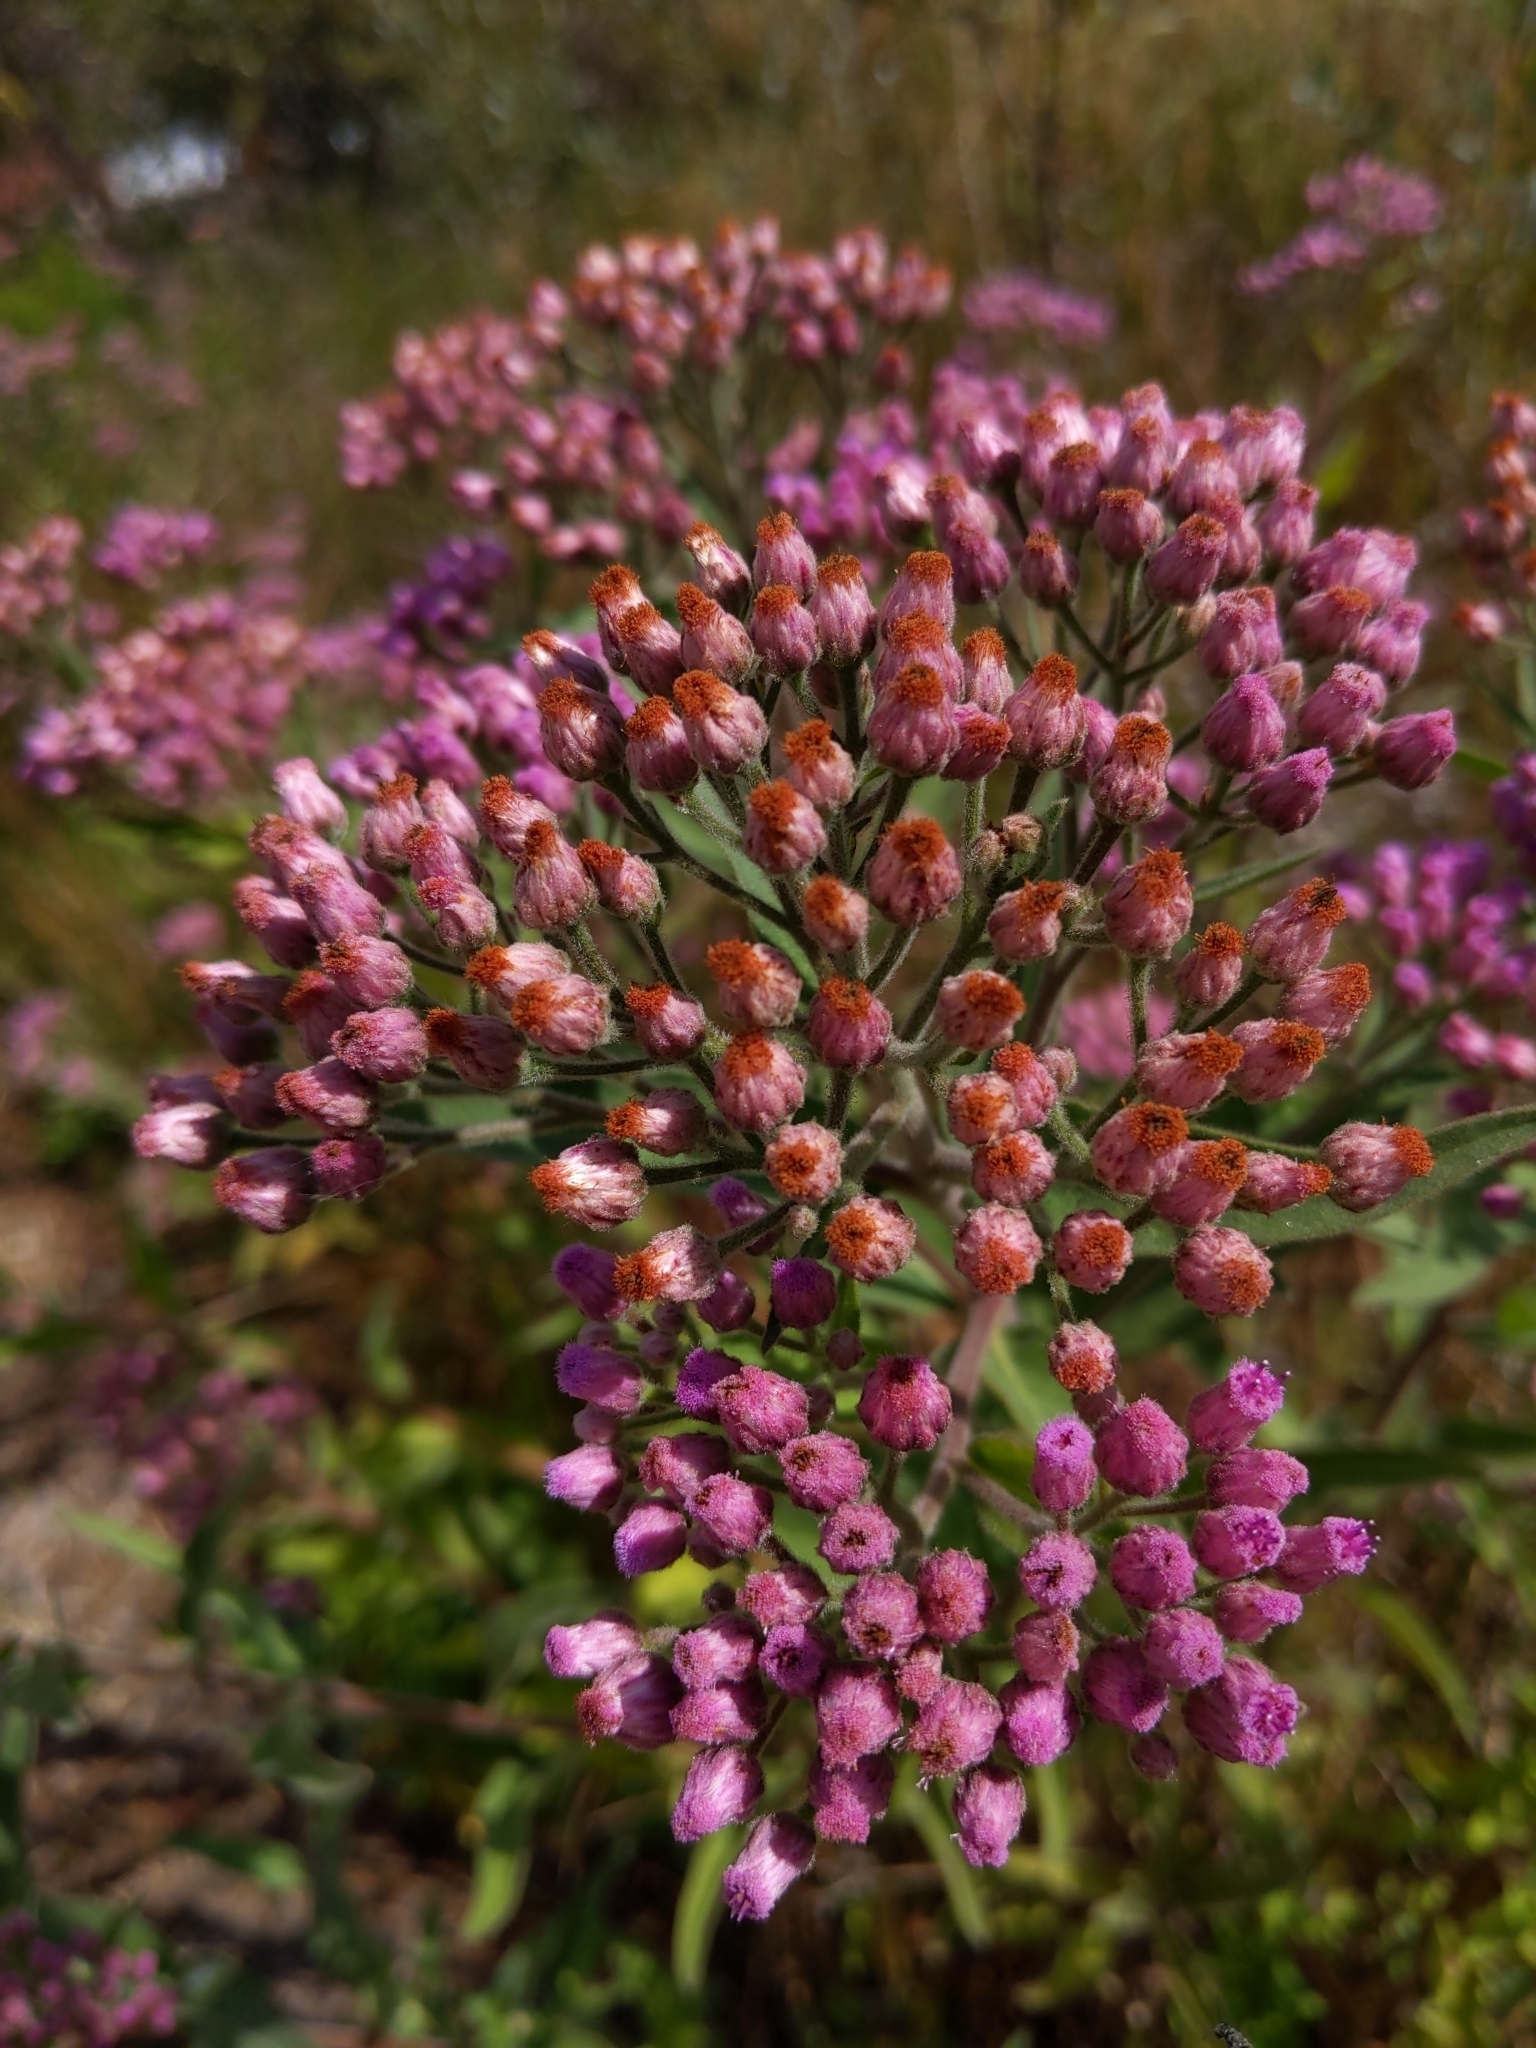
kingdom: Plantae
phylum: Tracheophyta
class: Magnoliopsida
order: Asterales
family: Asteraceae
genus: Pluchea
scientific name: Pluchea odorata
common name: Saltmarsh fleabane
